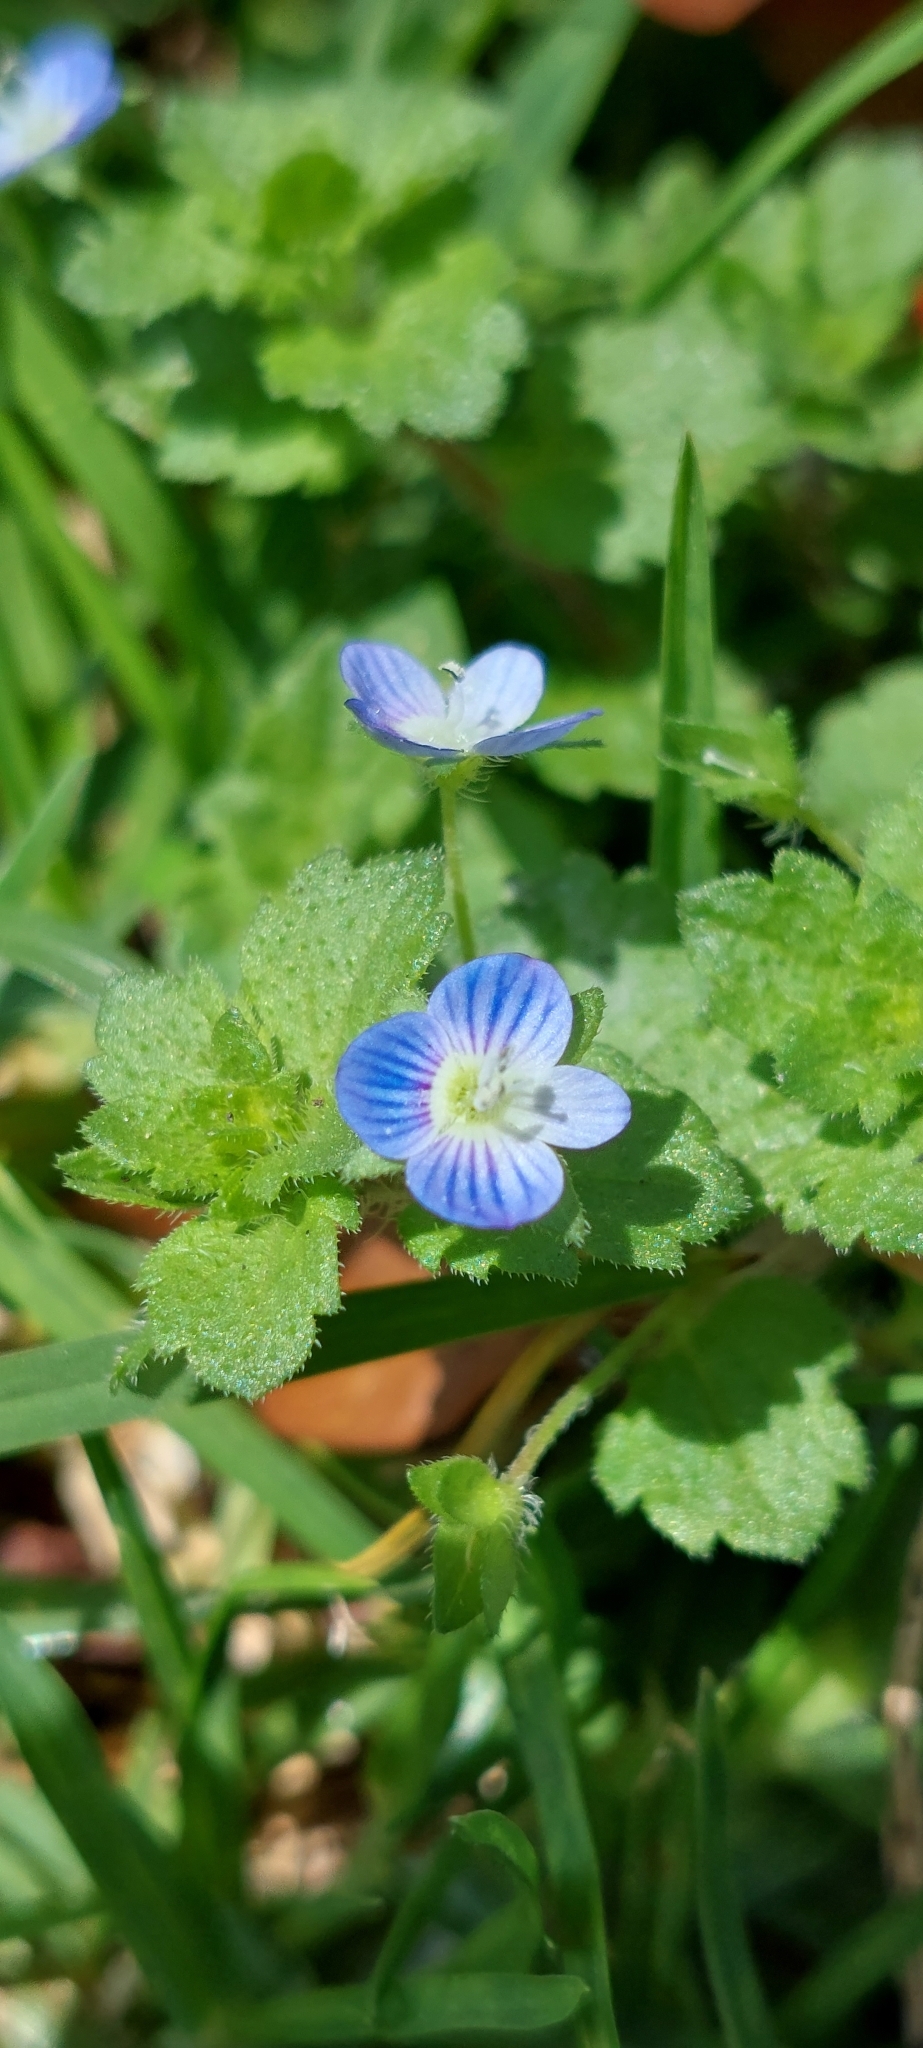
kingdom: Plantae
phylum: Tracheophyta
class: Magnoliopsida
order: Lamiales
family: Plantaginaceae
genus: Veronica
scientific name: Veronica persica
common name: Common field-speedwell
